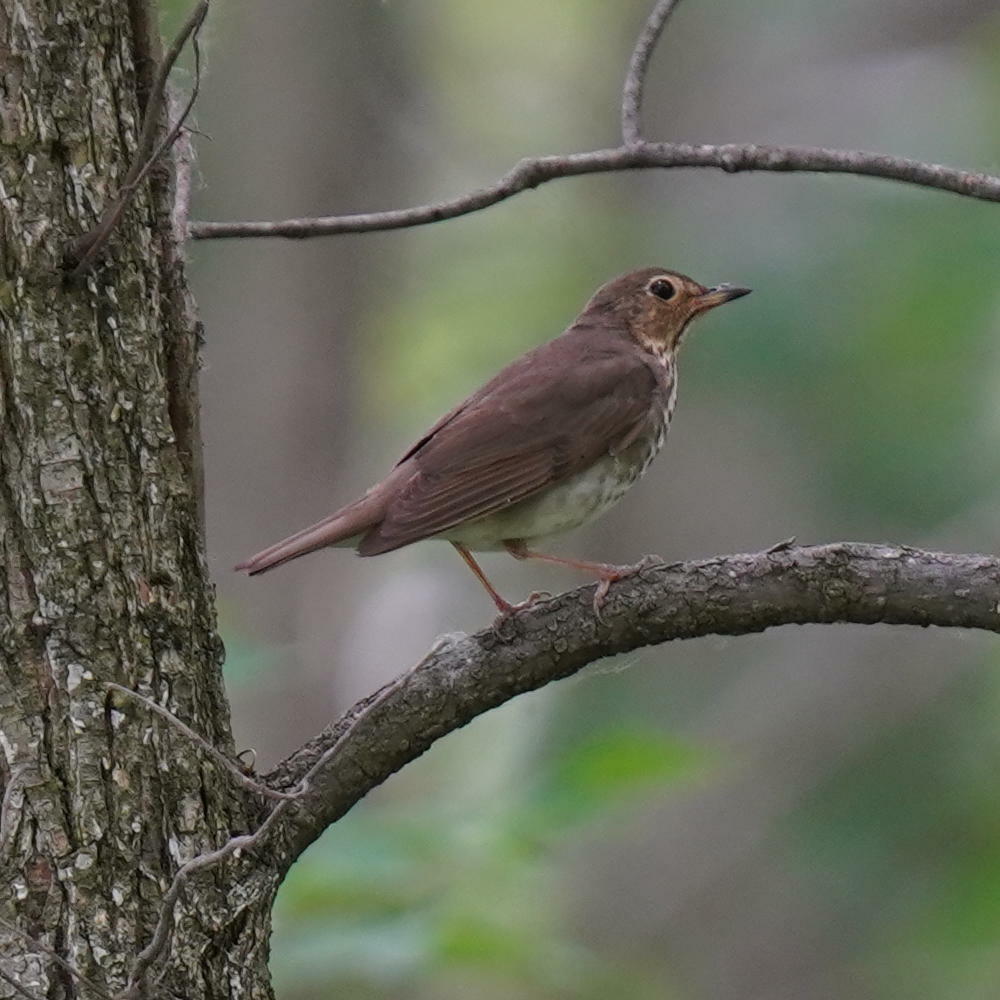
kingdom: Animalia
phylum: Chordata
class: Aves
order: Passeriformes
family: Turdidae
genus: Catharus
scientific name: Catharus ustulatus
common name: Swainson's thrush
